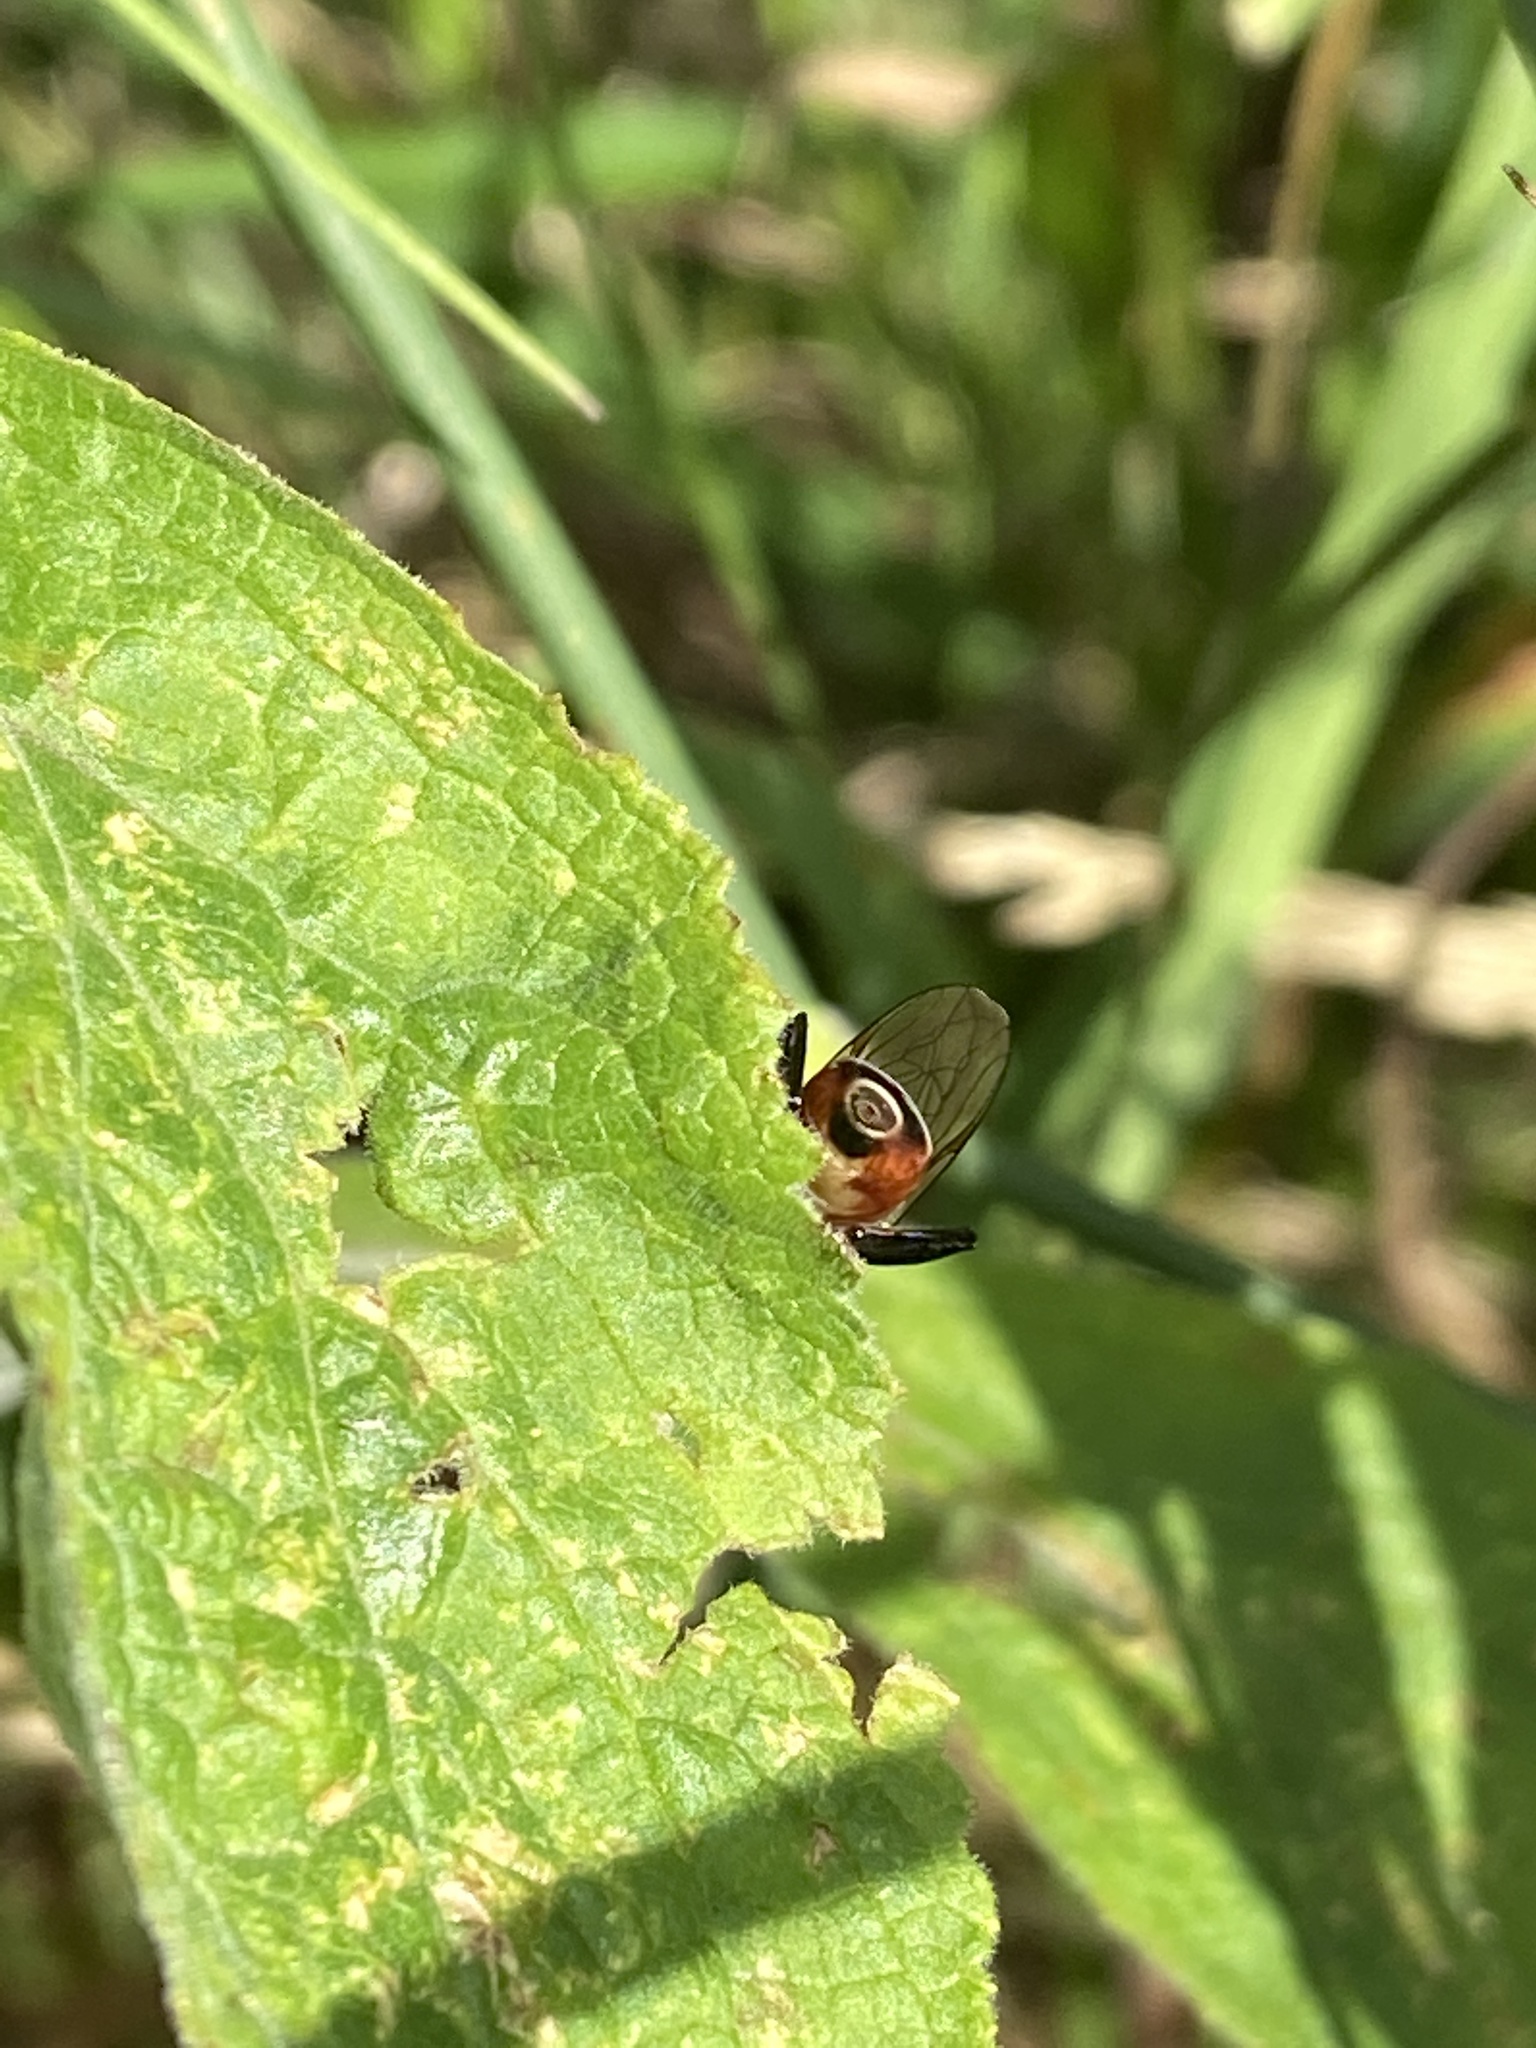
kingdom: Animalia
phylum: Arthropoda
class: Insecta
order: Diptera
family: Syrphidae
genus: Tropidia
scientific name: Tropidia scita
